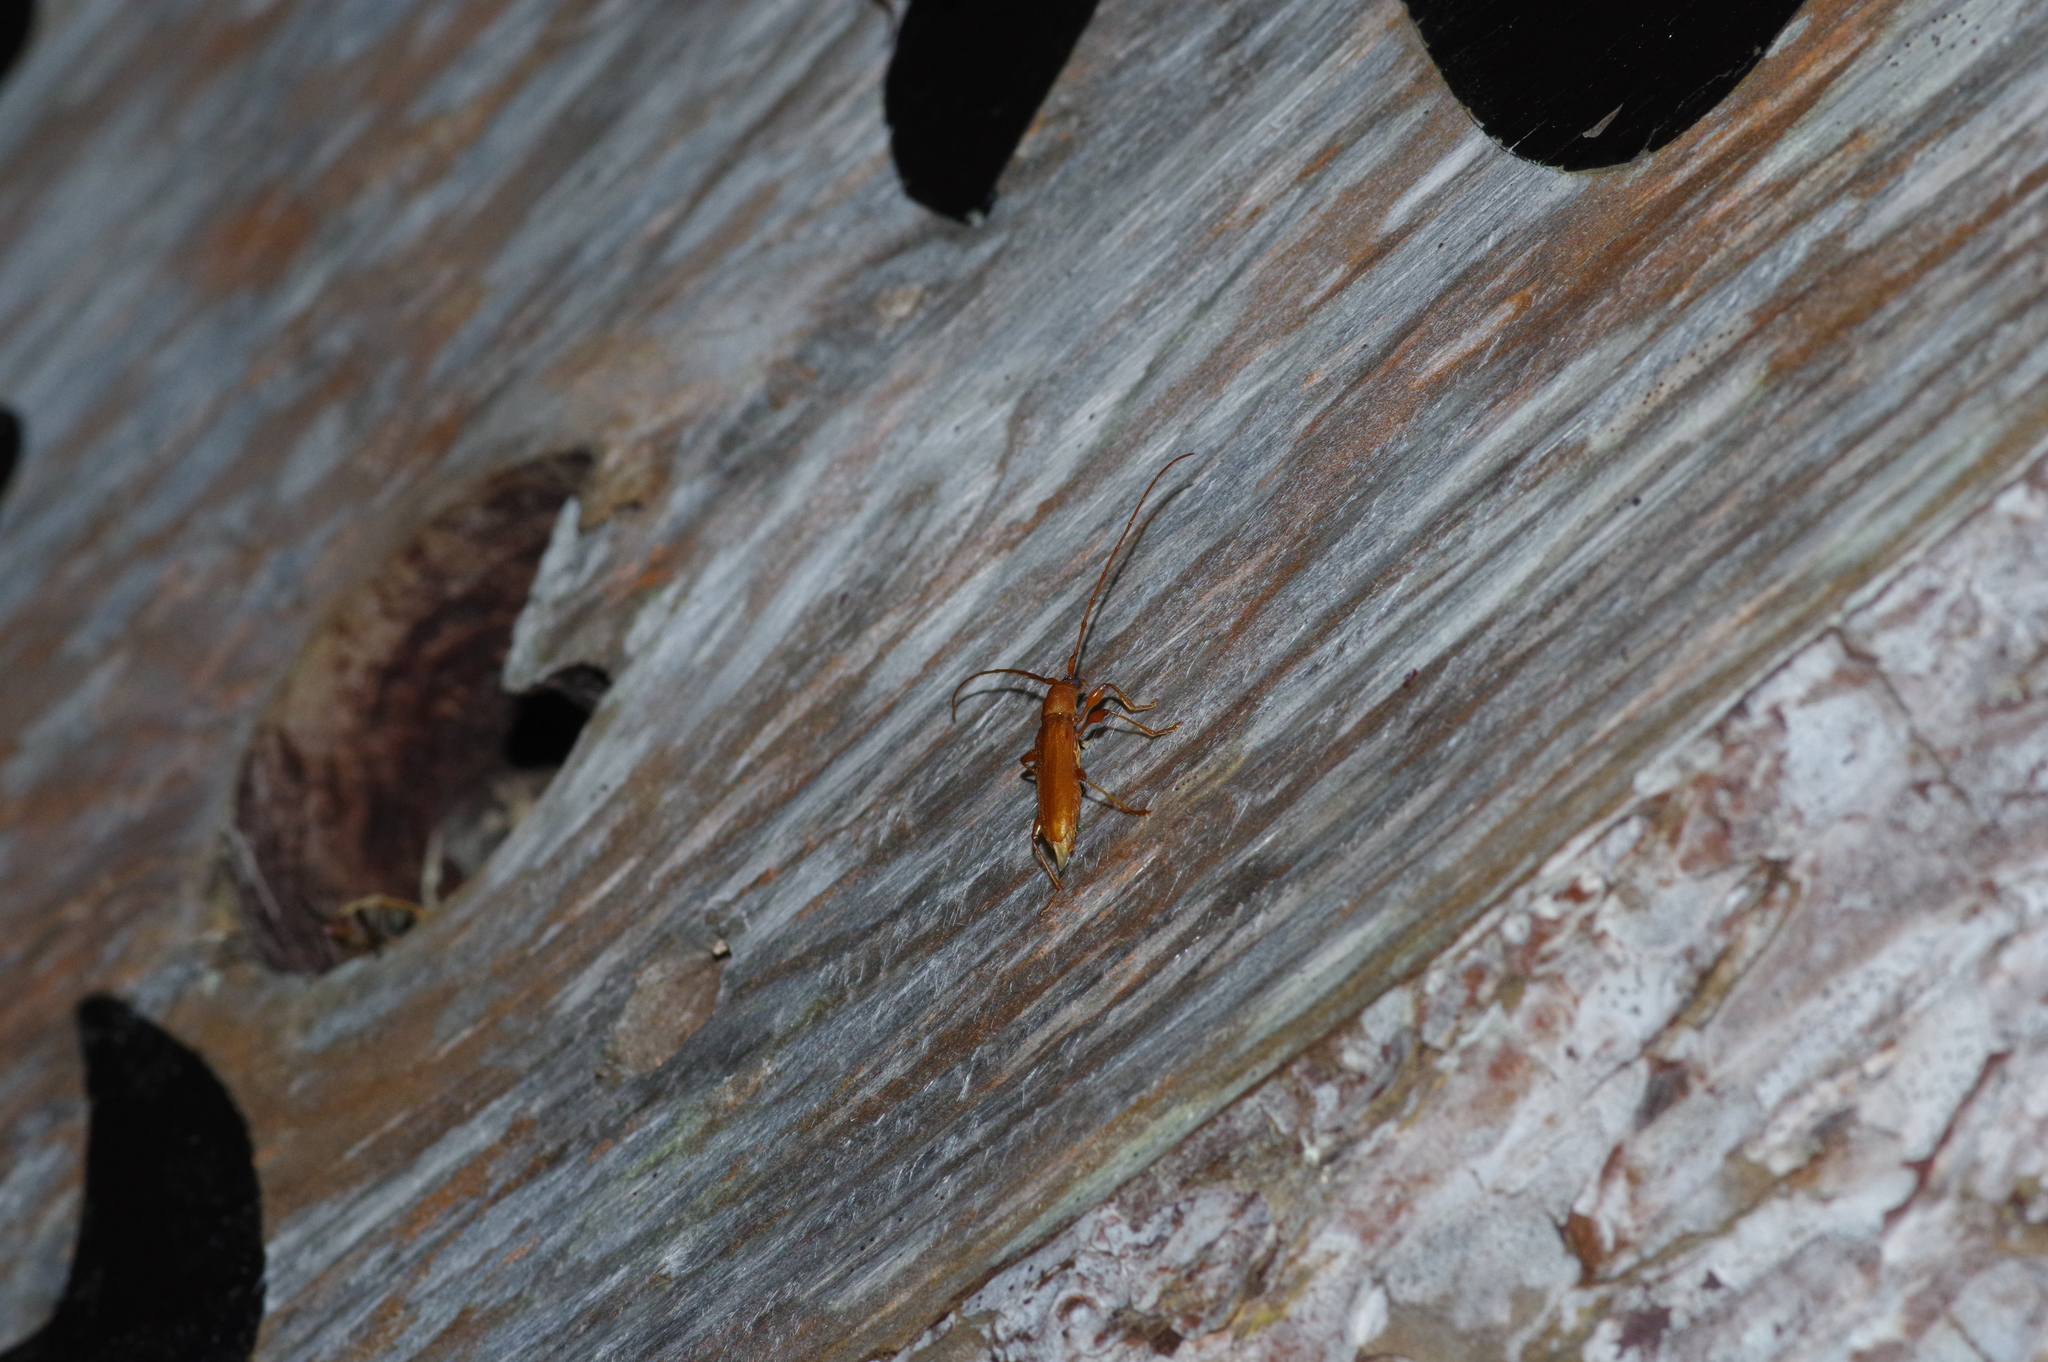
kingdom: Animalia
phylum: Arthropoda
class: Insecta
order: Coleoptera
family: Cerambycidae
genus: Nysina
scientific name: Nysina insularis
